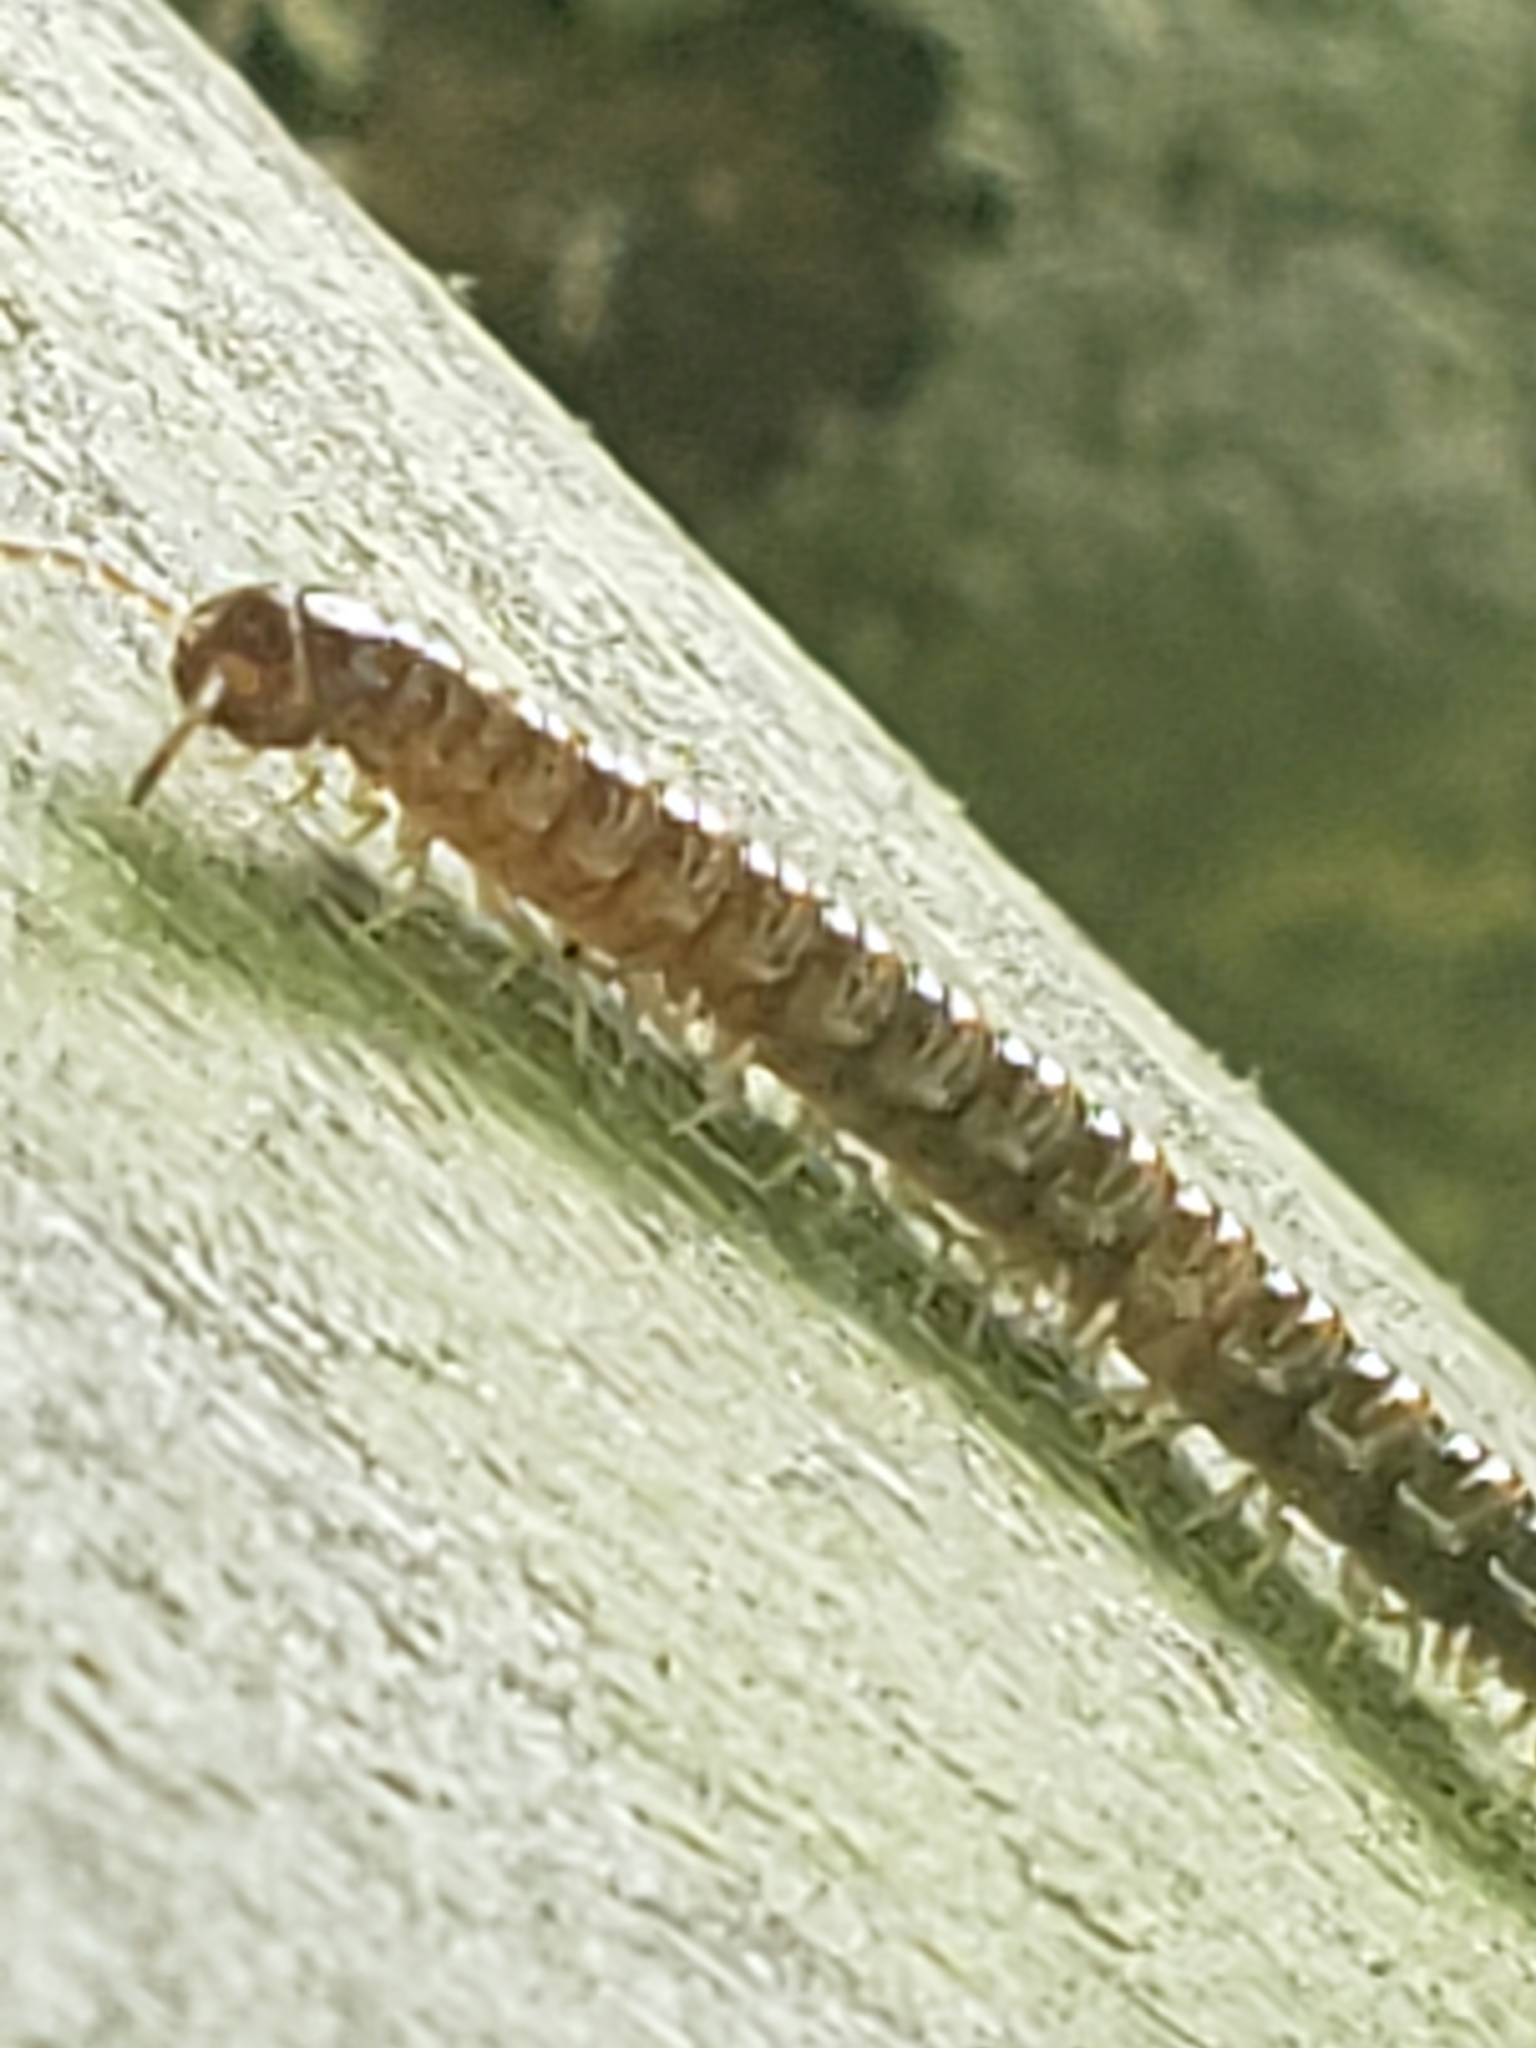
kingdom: Animalia
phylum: Arthropoda
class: Diplopoda
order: Polydesmida
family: Paradoxosomatidae
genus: Oxidus
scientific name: Oxidus gracilis
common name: Greenhouse millipede
